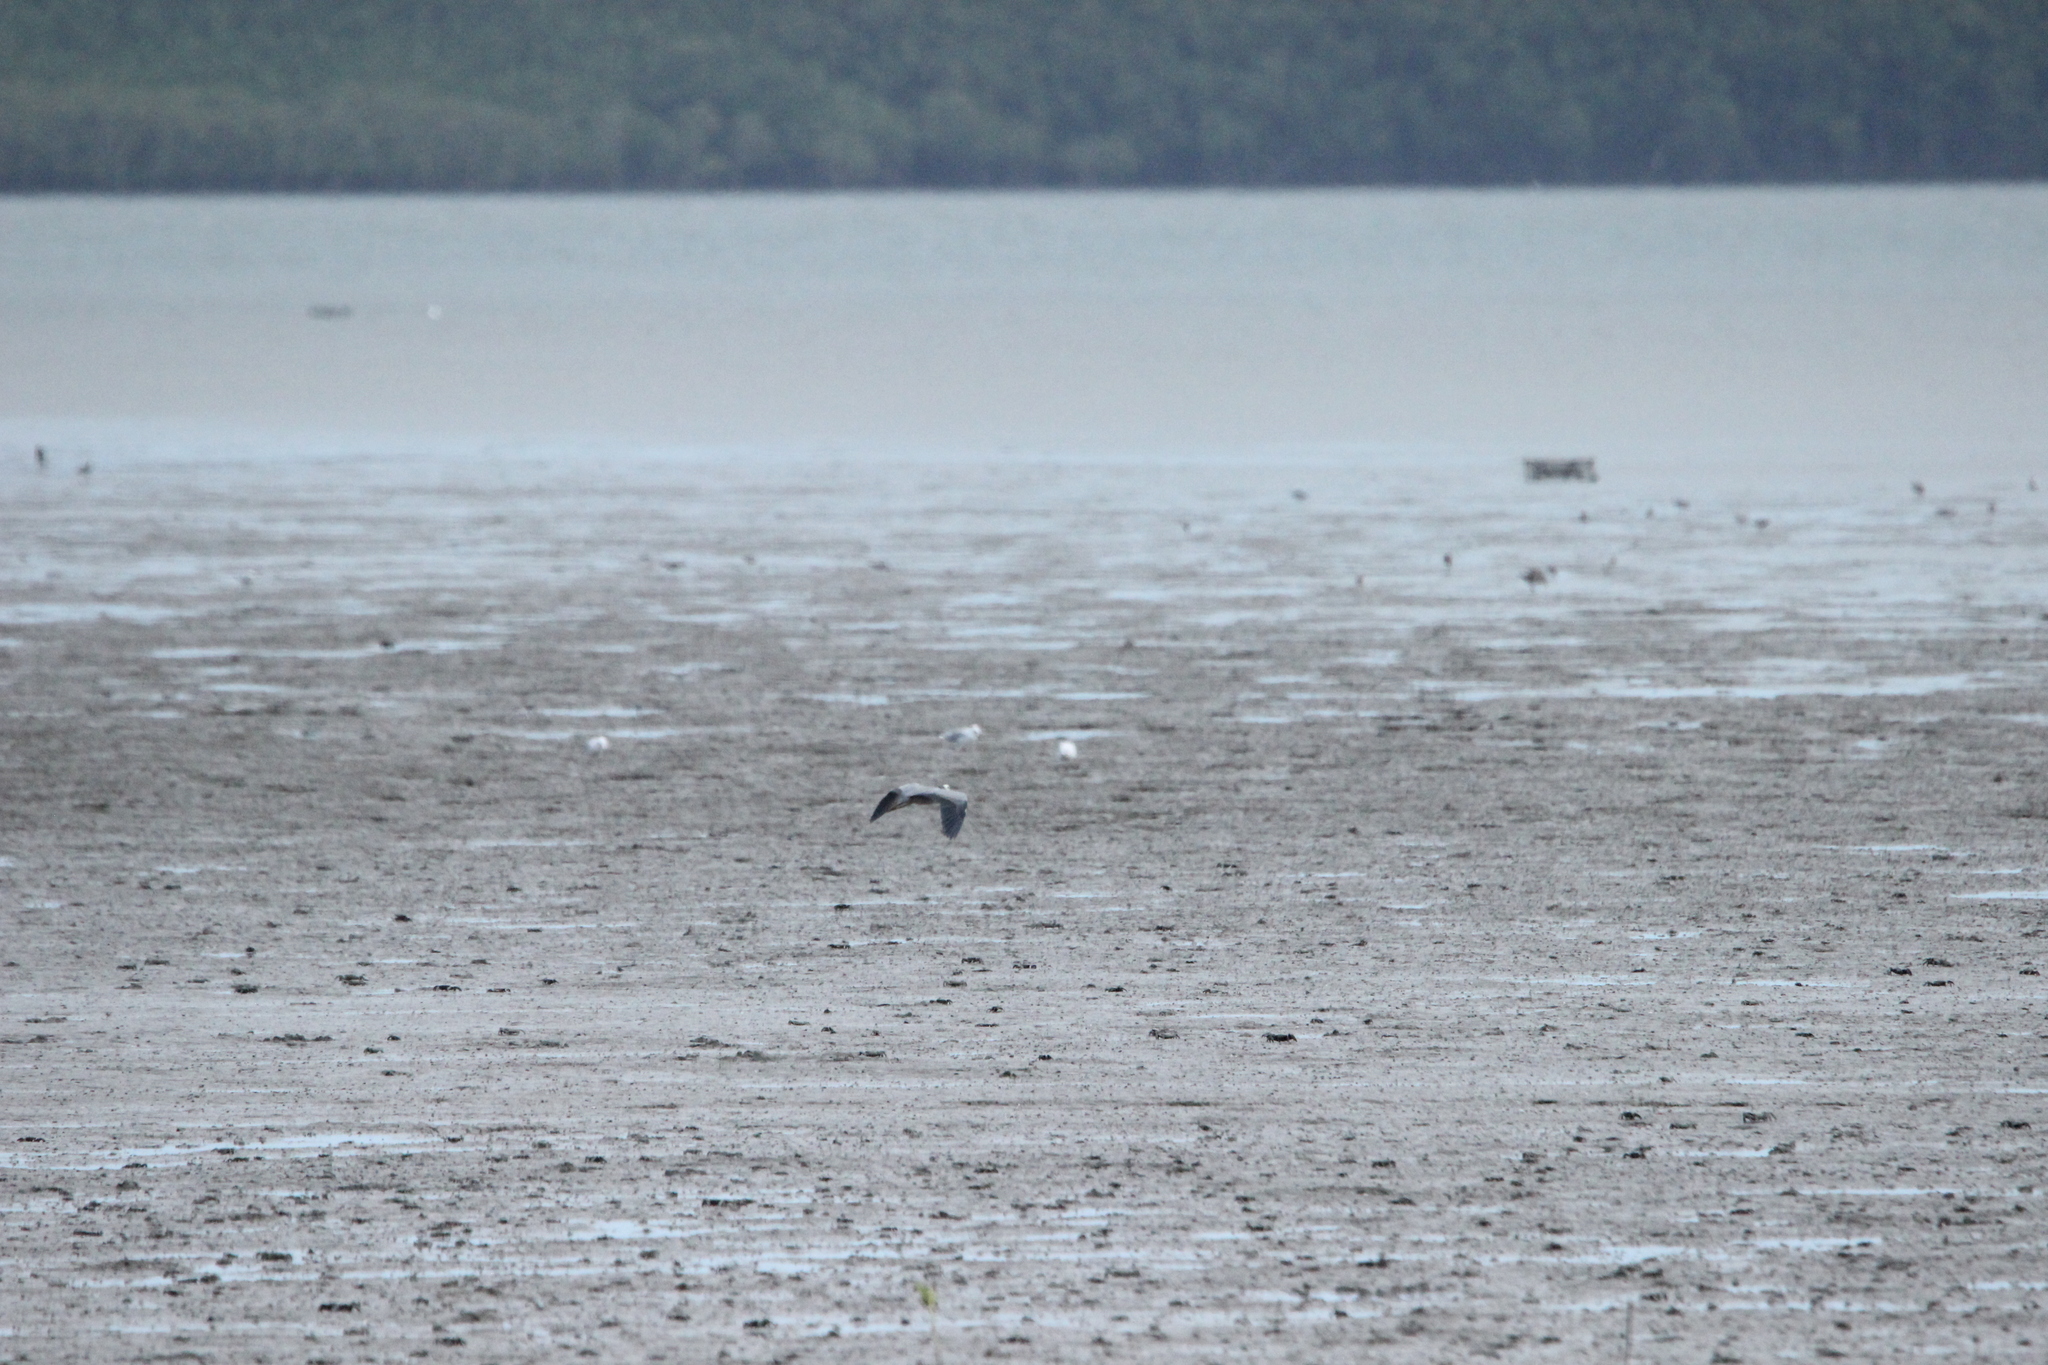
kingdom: Animalia
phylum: Chordata
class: Aves
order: Pelecaniformes
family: Ardeidae
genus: Egretta
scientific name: Egretta novaehollandiae
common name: White-faced heron
